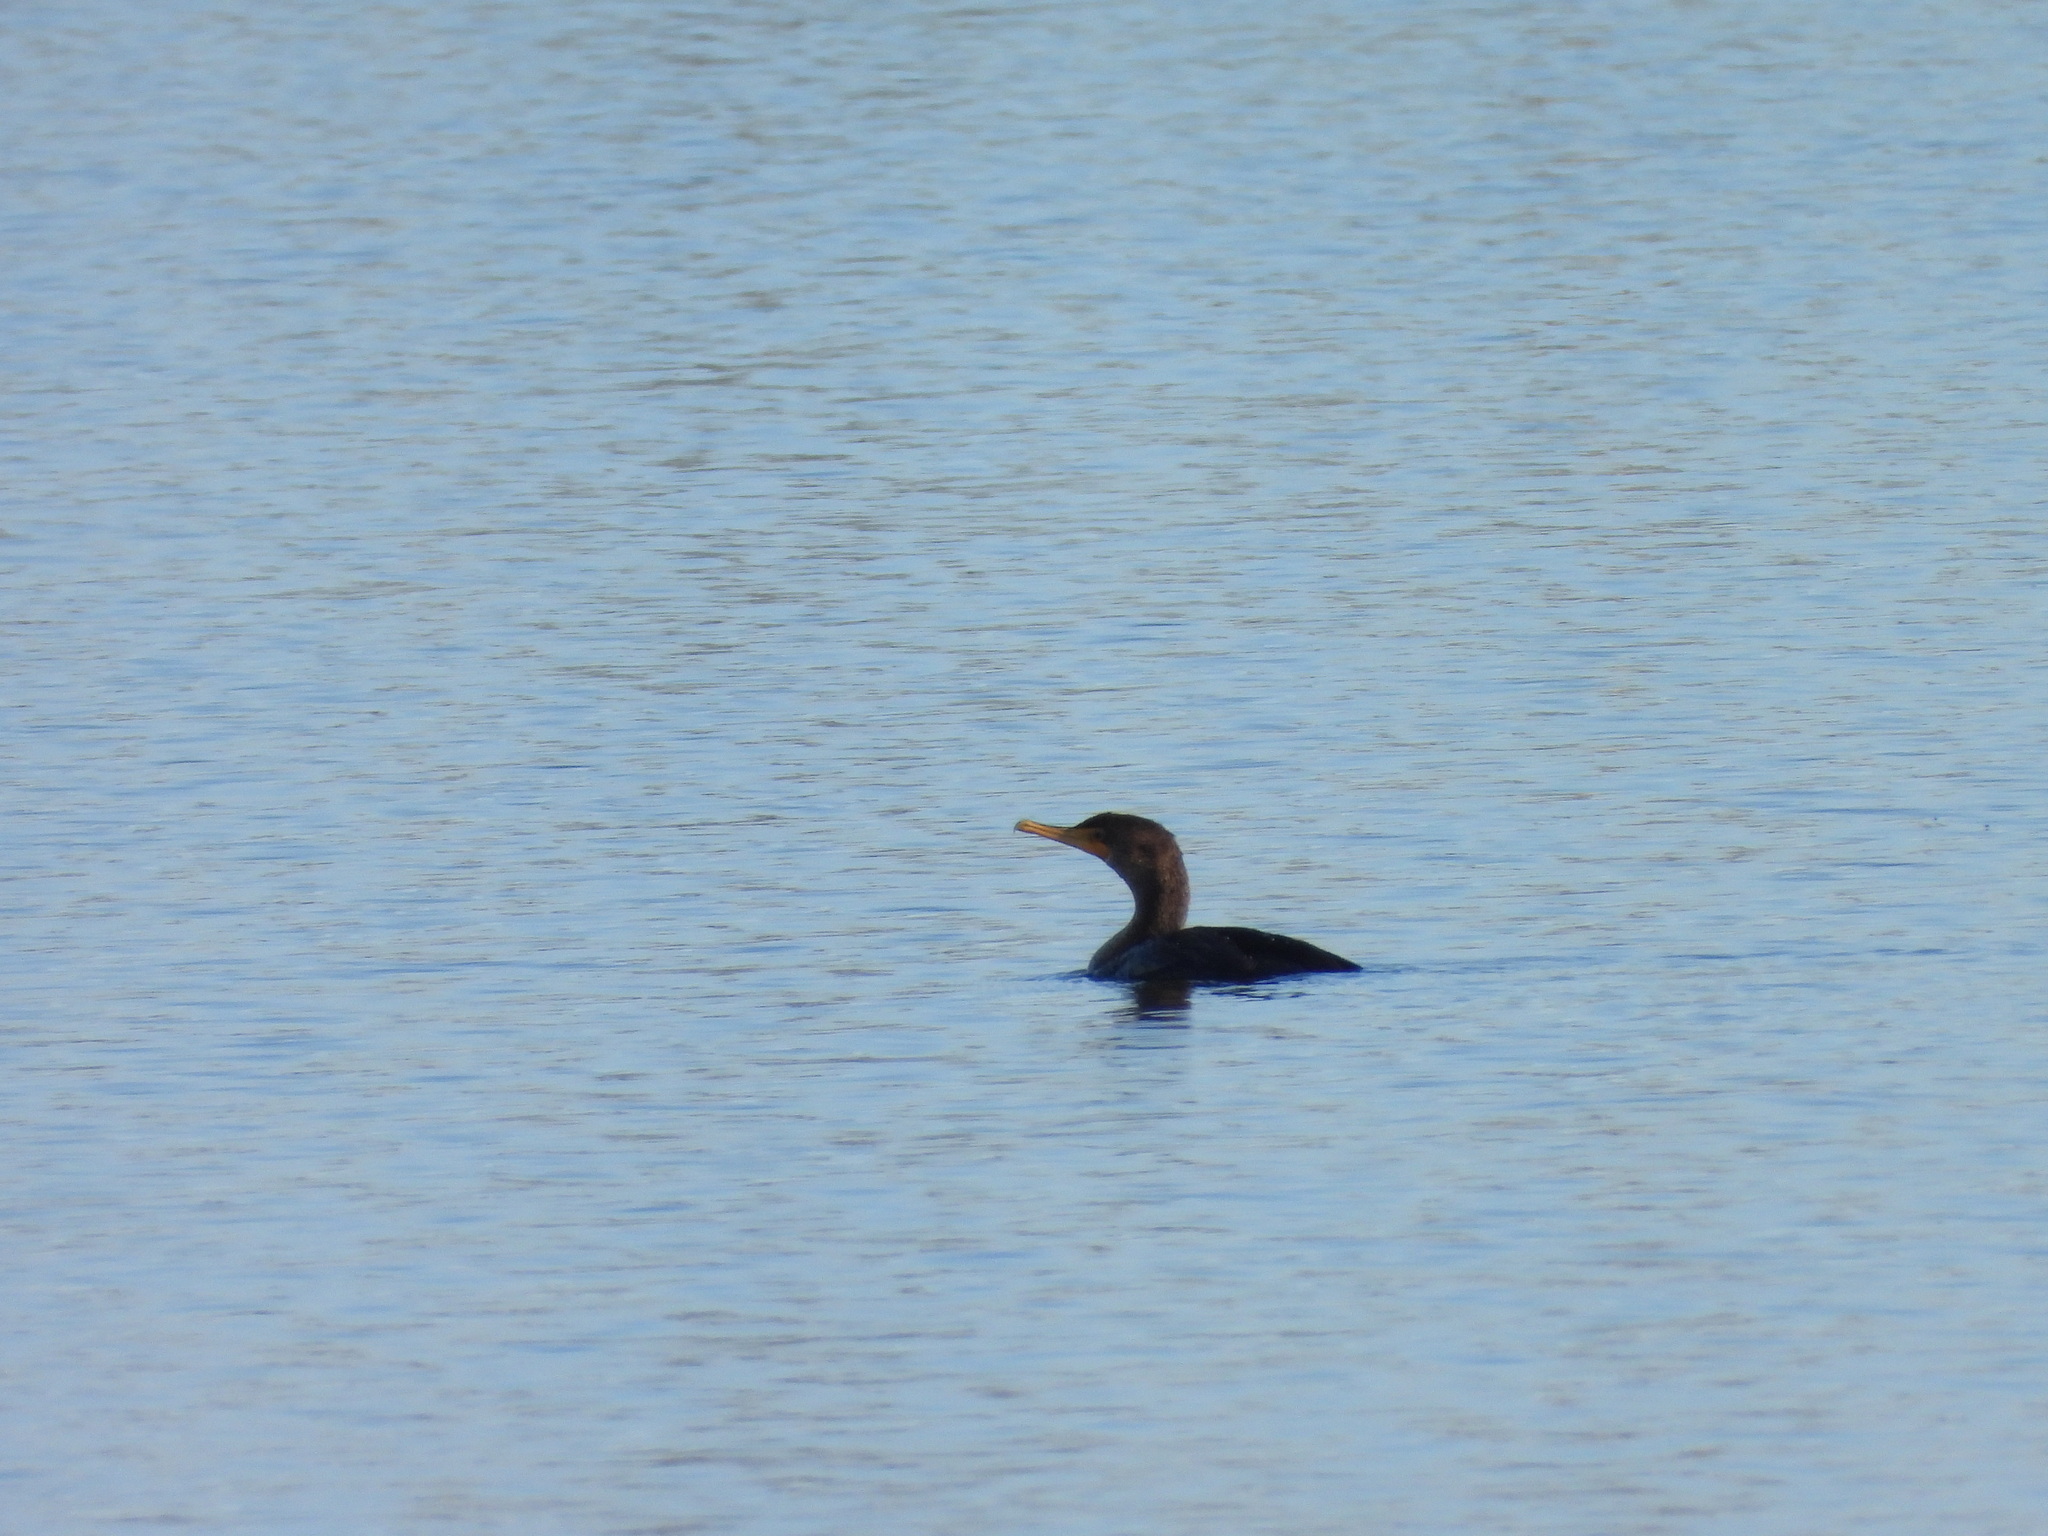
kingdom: Animalia
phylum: Chordata
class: Aves
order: Suliformes
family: Phalacrocoracidae
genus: Phalacrocorax
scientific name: Phalacrocorax auritus
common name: Double-crested cormorant
